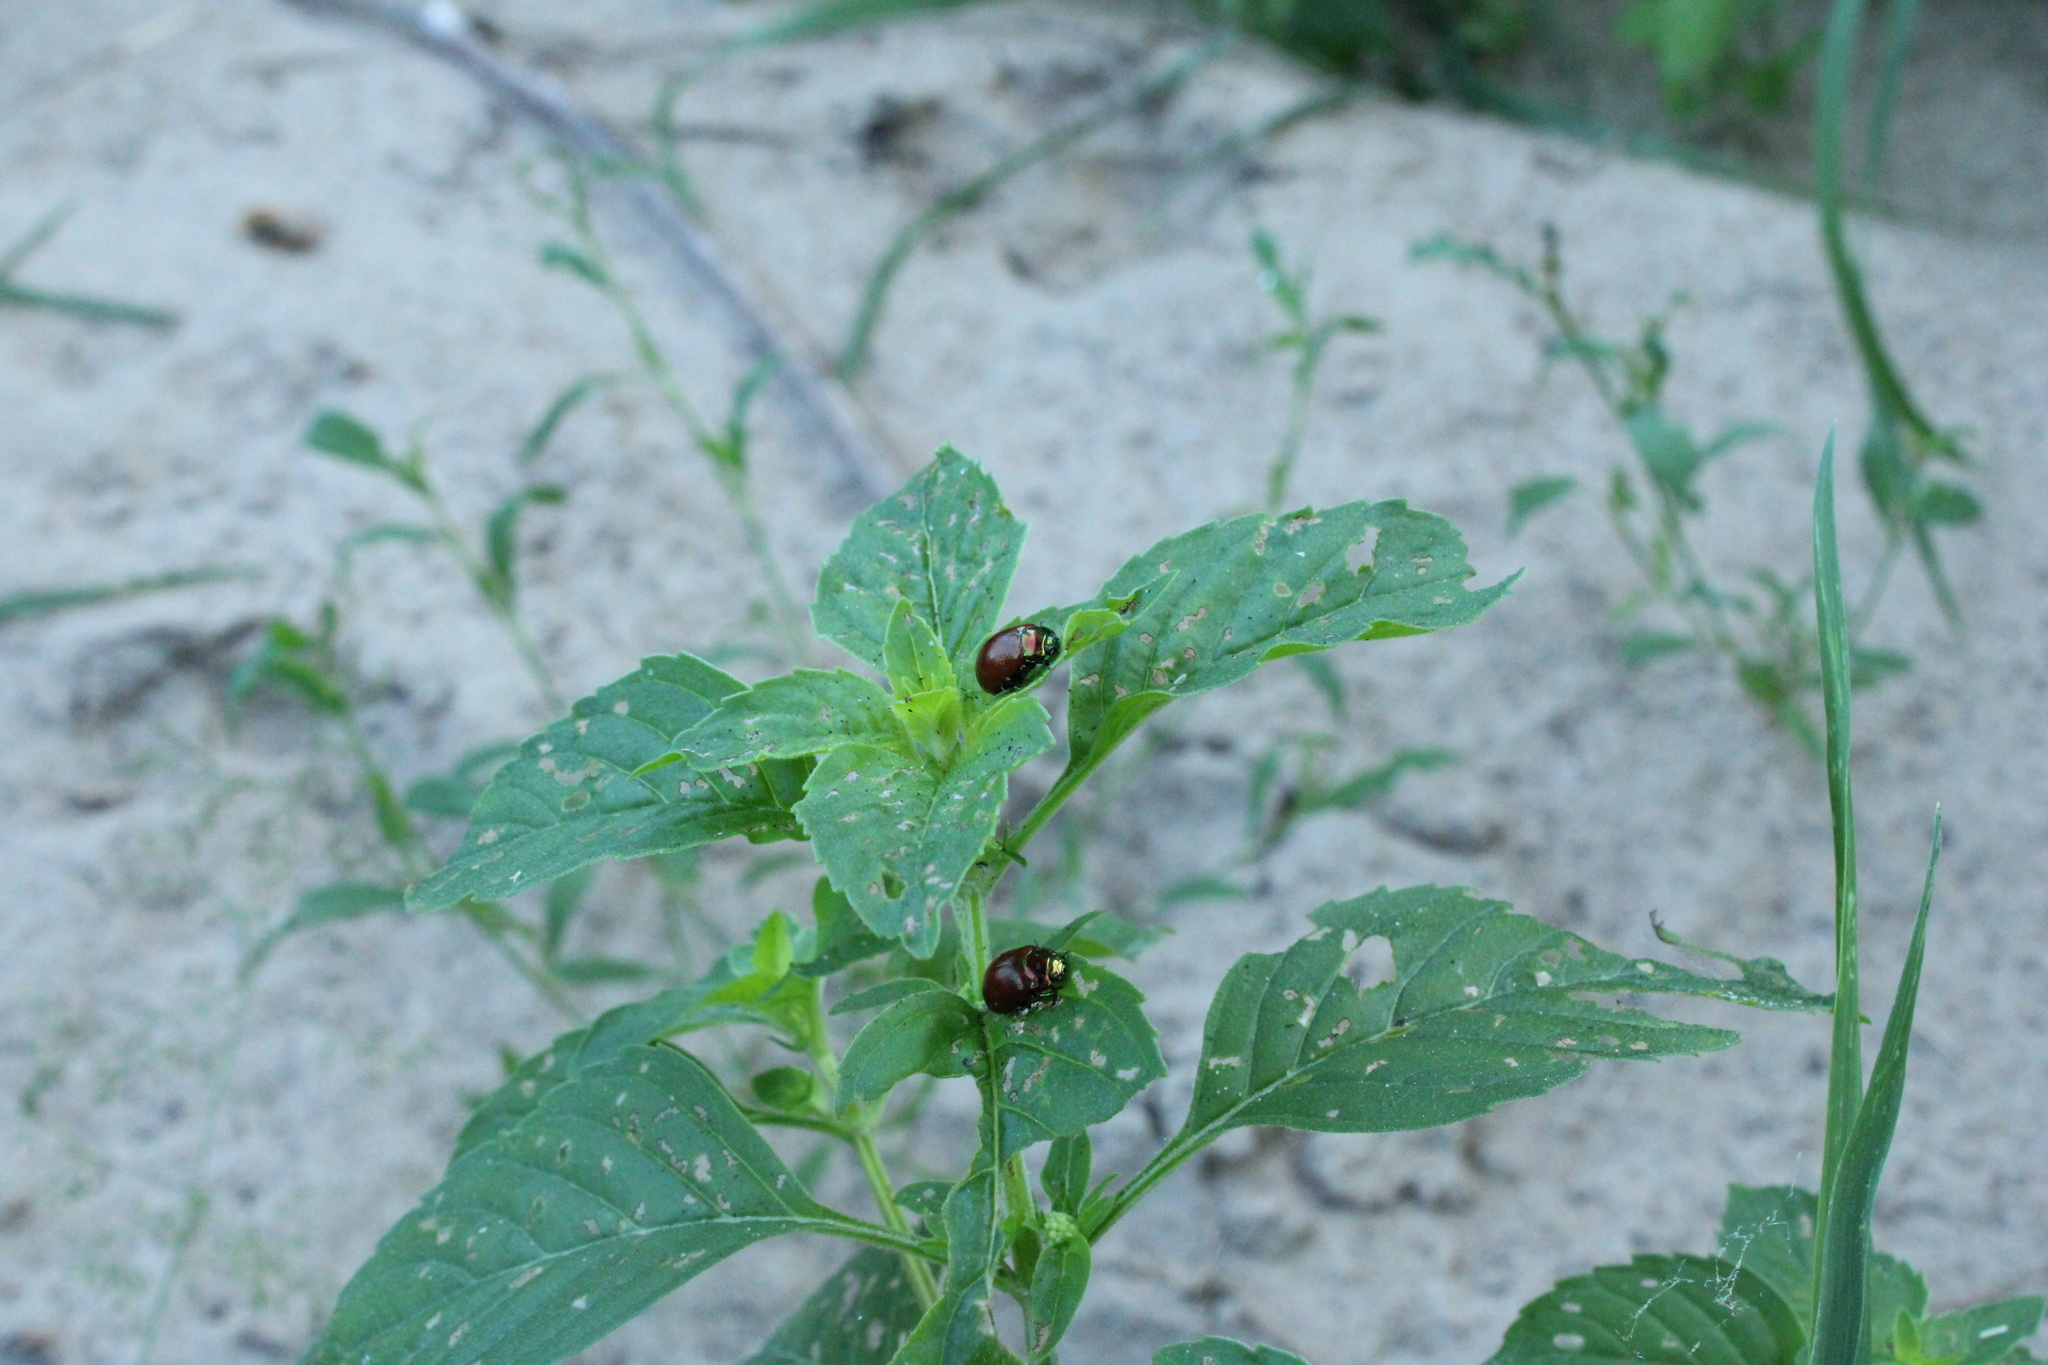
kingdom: Animalia
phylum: Arthropoda
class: Insecta
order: Coleoptera
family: Chrysomelidae
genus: Chrysomela
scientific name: Chrysomela polita
